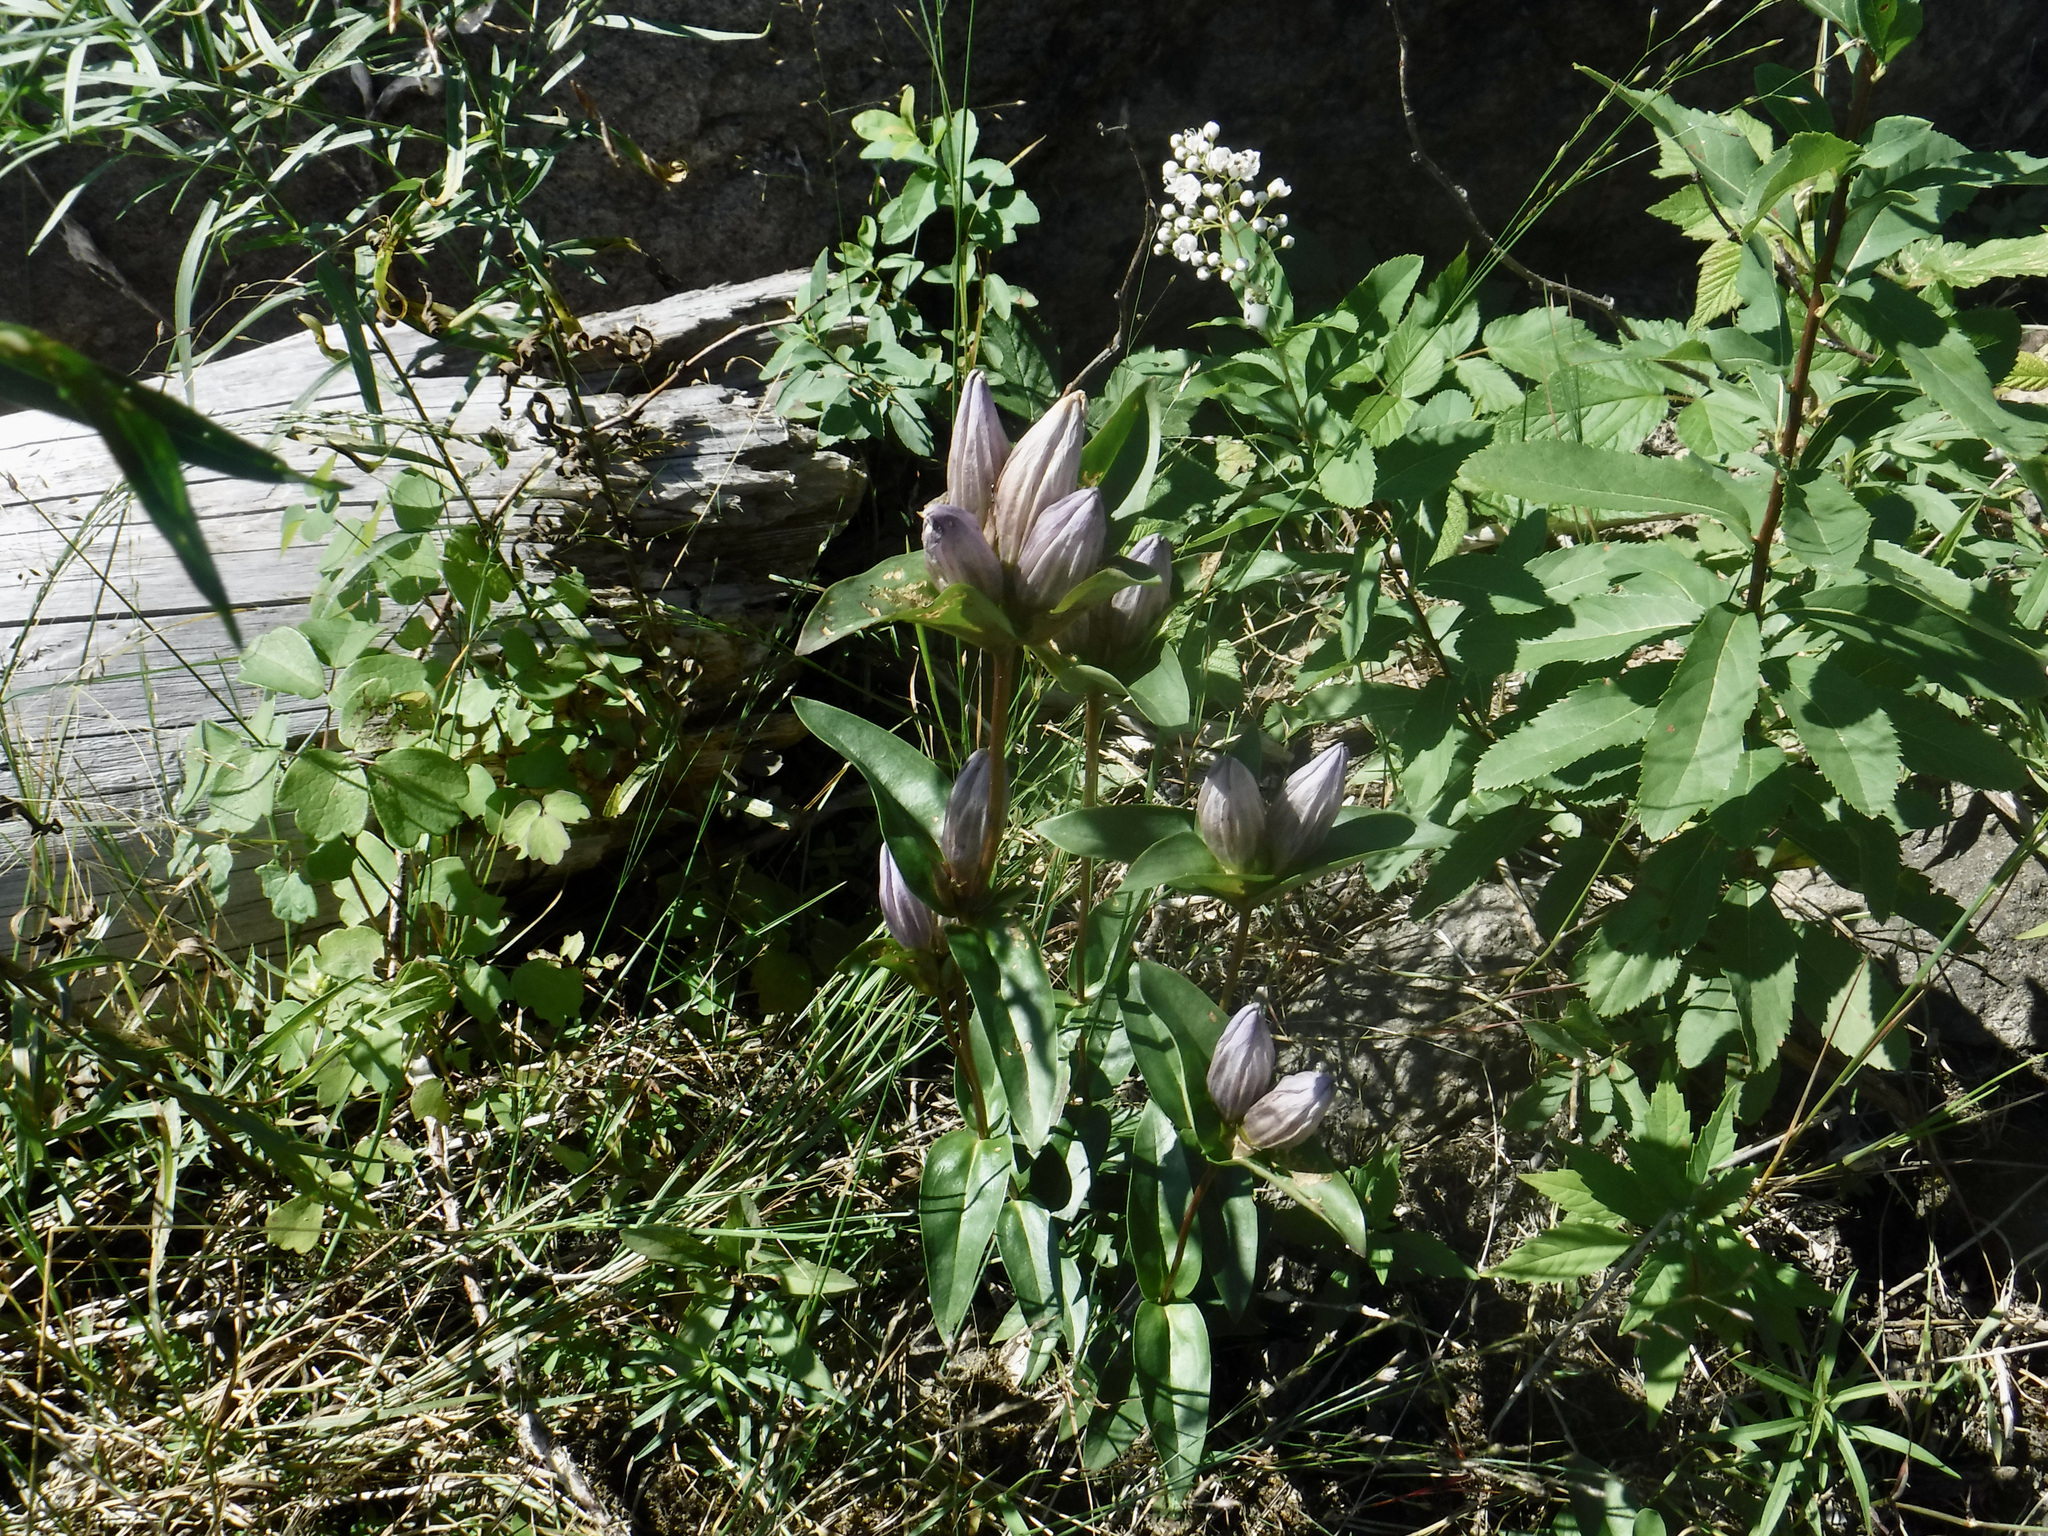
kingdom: Plantae
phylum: Tracheophyta
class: Magnoliopsida
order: Gentianales
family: Gentianaceae
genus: Gentiana
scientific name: Gentiana rubricaulis
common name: Purple-stemmed gentian
